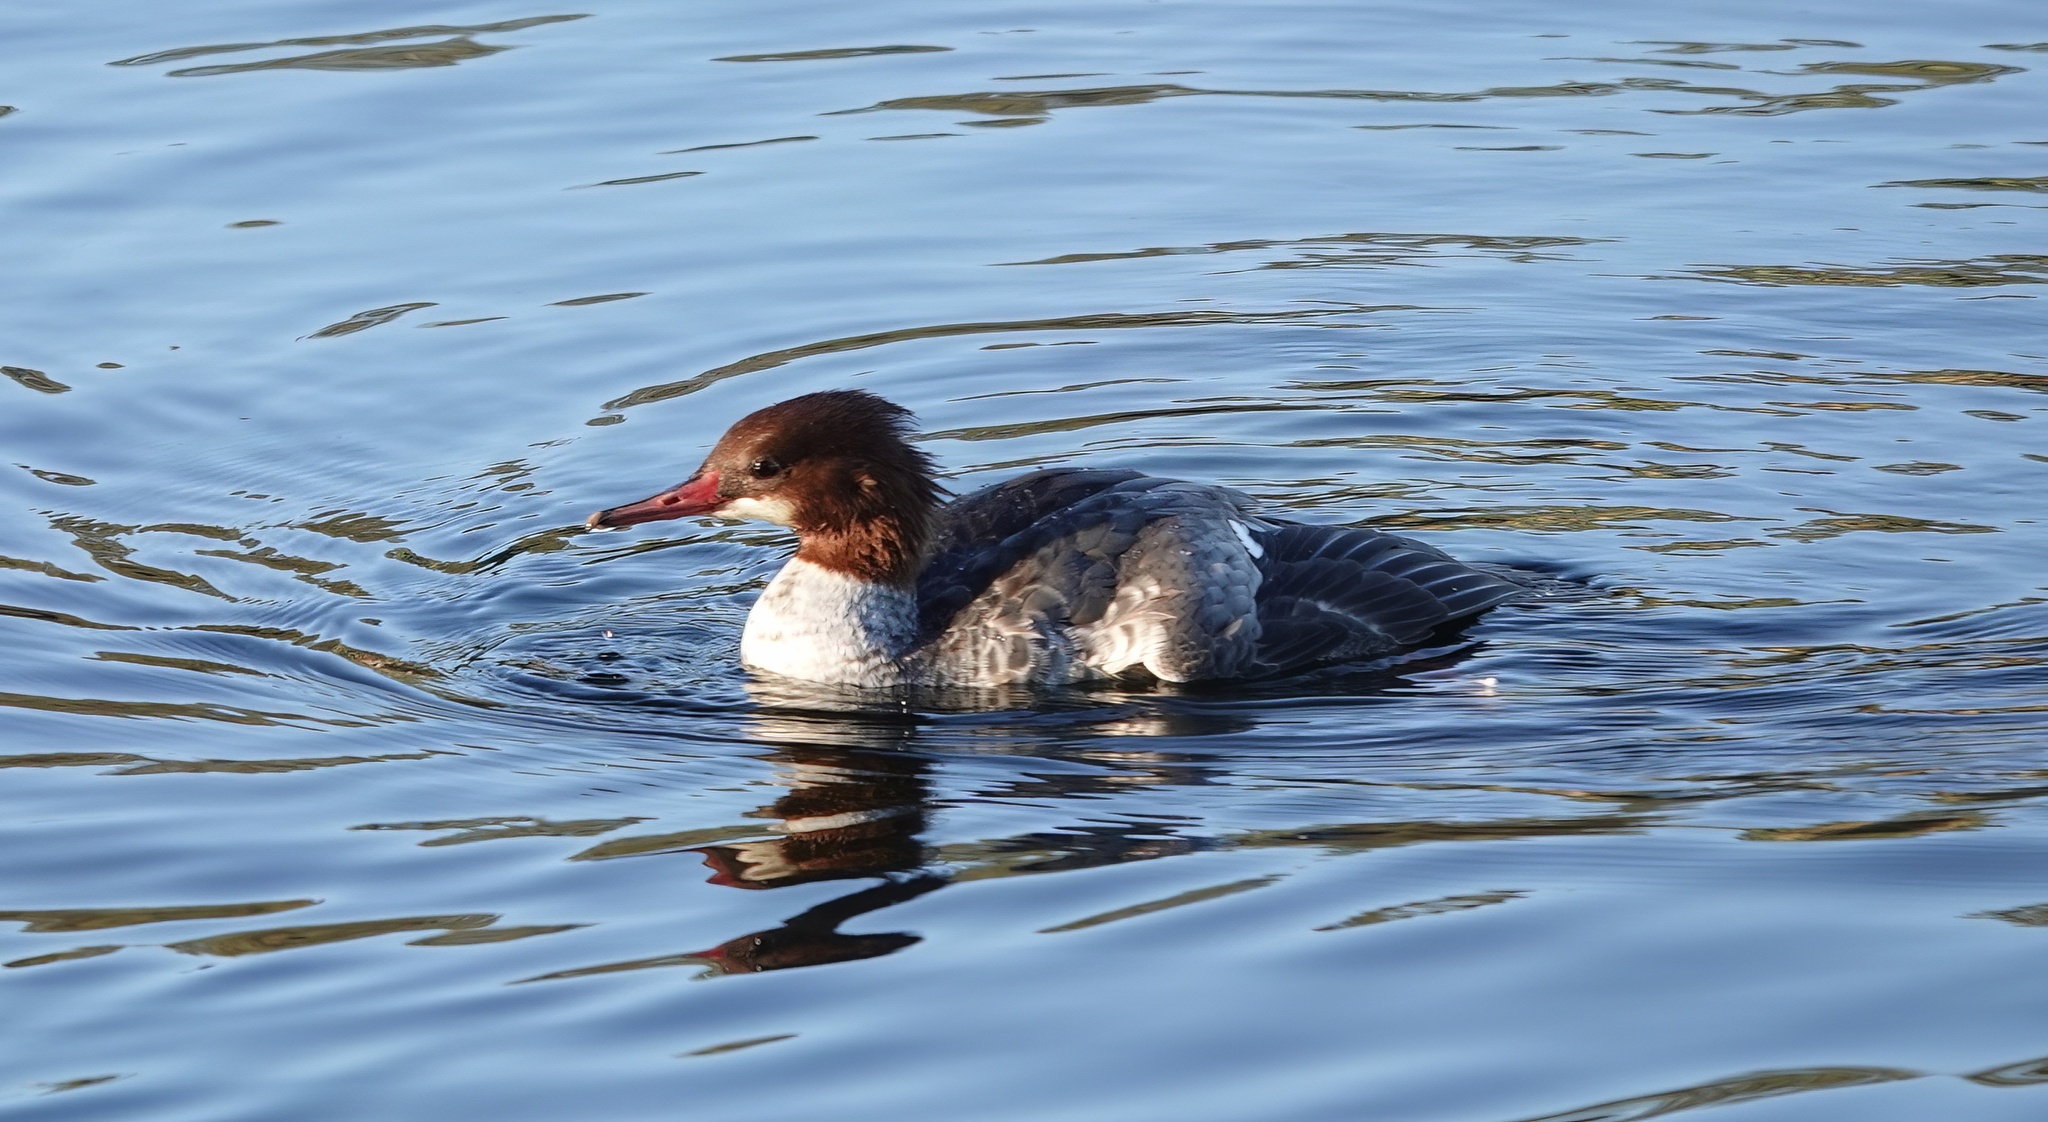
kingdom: Animalia
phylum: Chordata
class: Aves
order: Anseriformes
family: Anatidae
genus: Mergus
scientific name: Mergus merganser
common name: Common merganser
